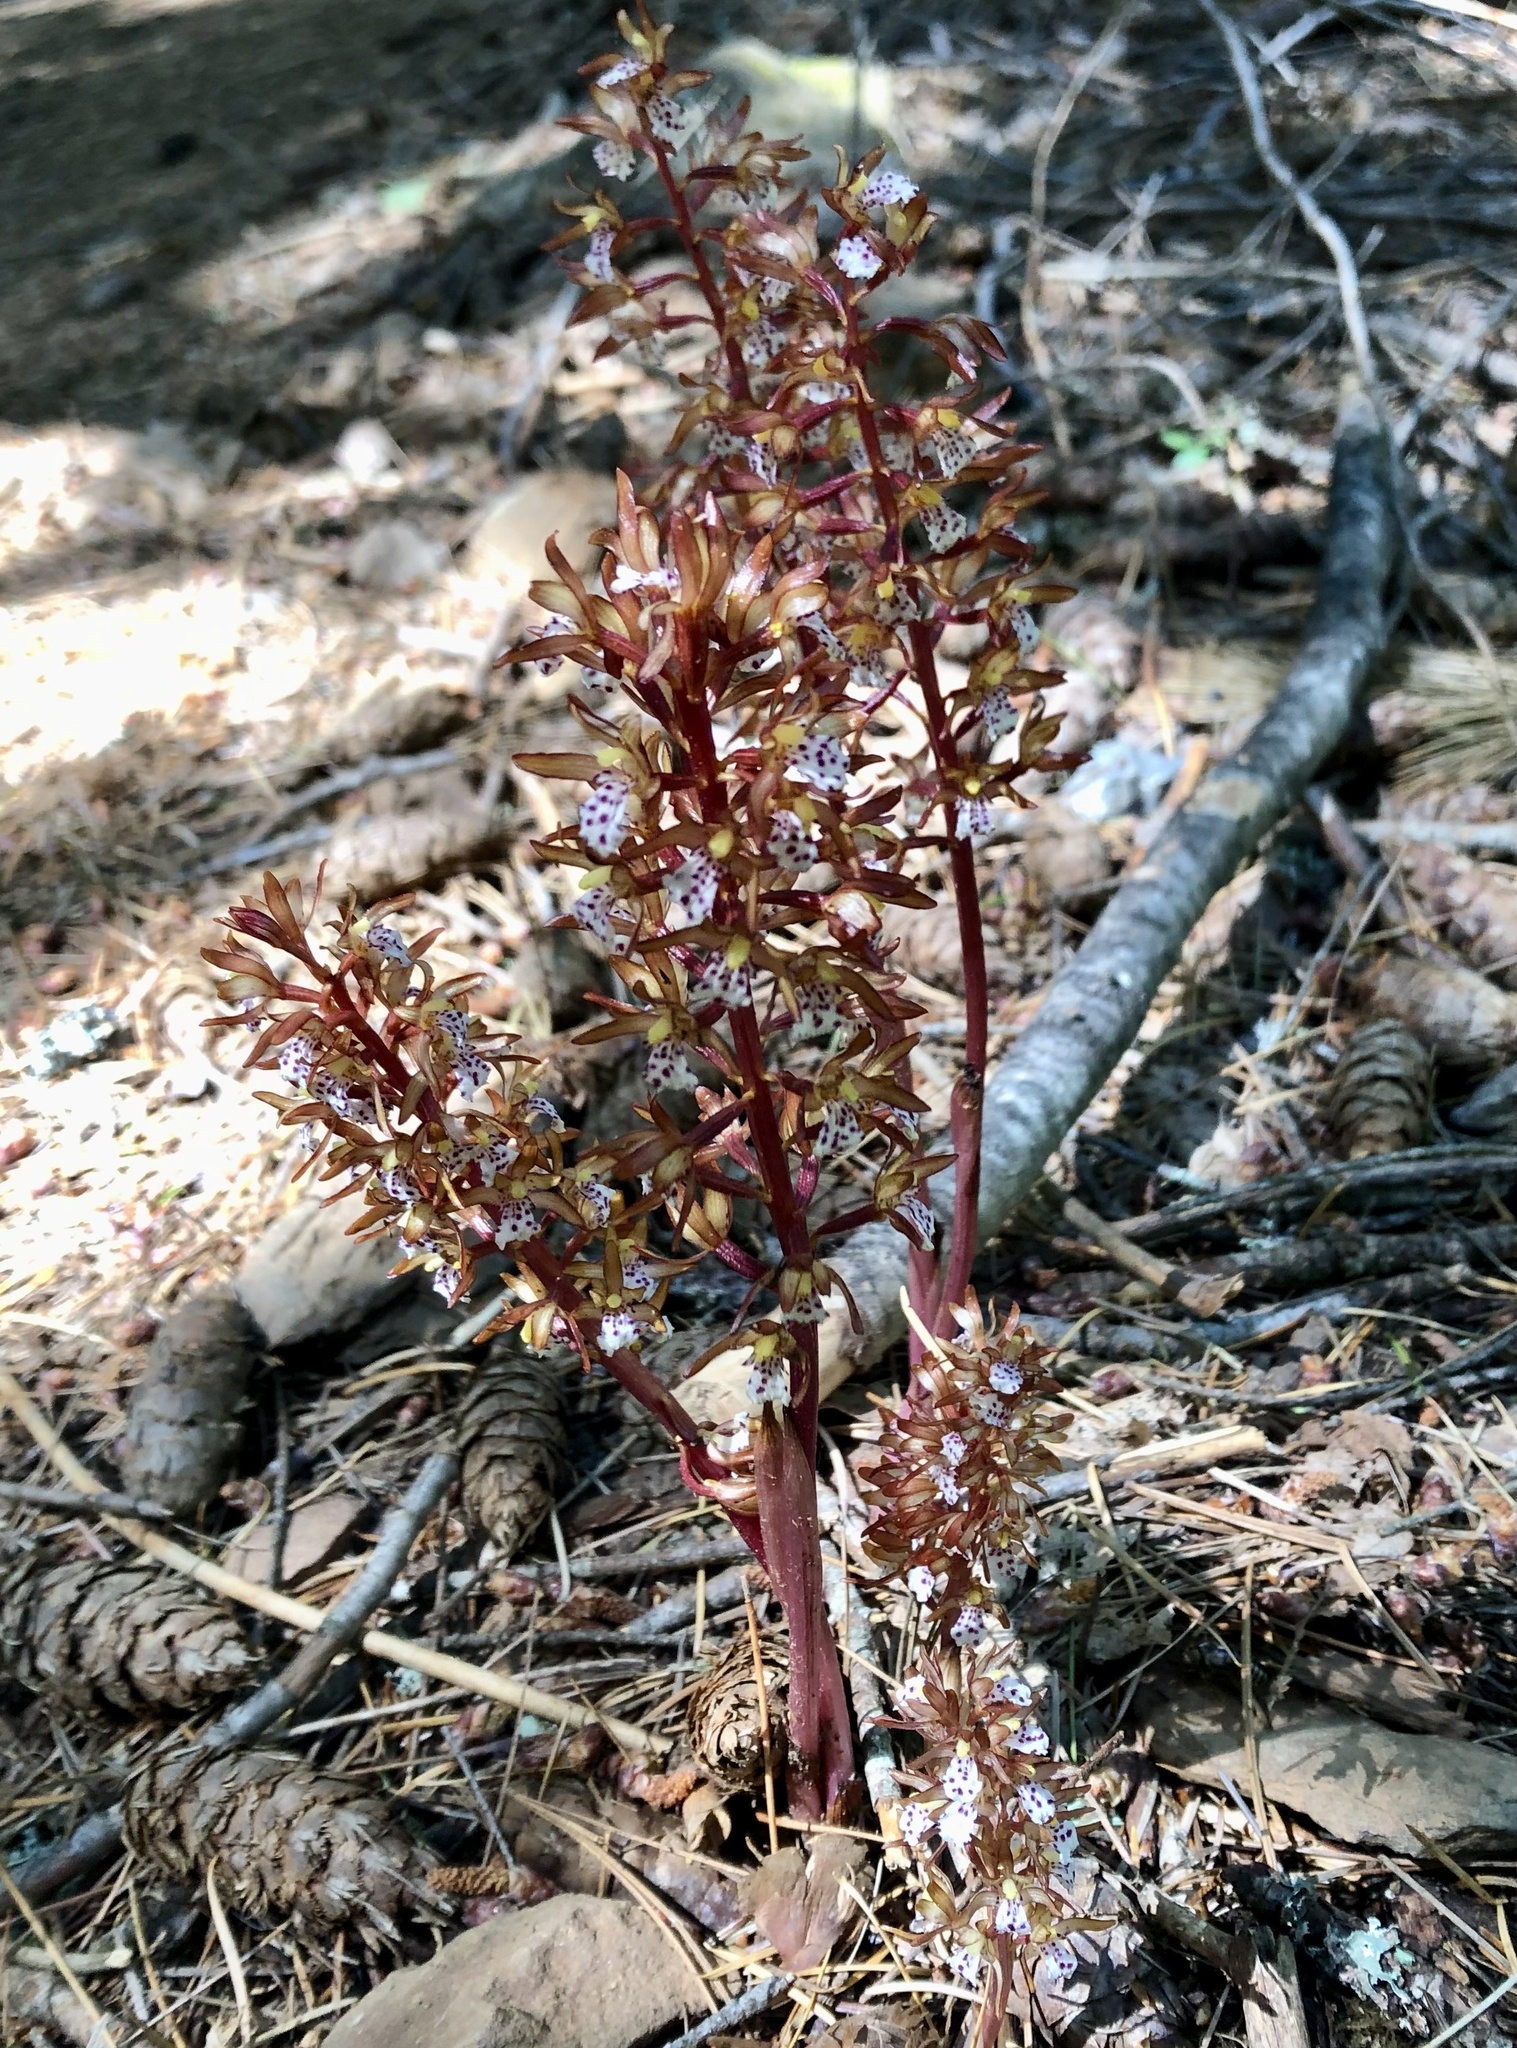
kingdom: Plantae
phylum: Tracheophyta
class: Liliopsida
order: Asparagales
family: Orchidaceae
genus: Corallorhiza
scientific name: Corallorhiza maculata
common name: Spotted coralroot
